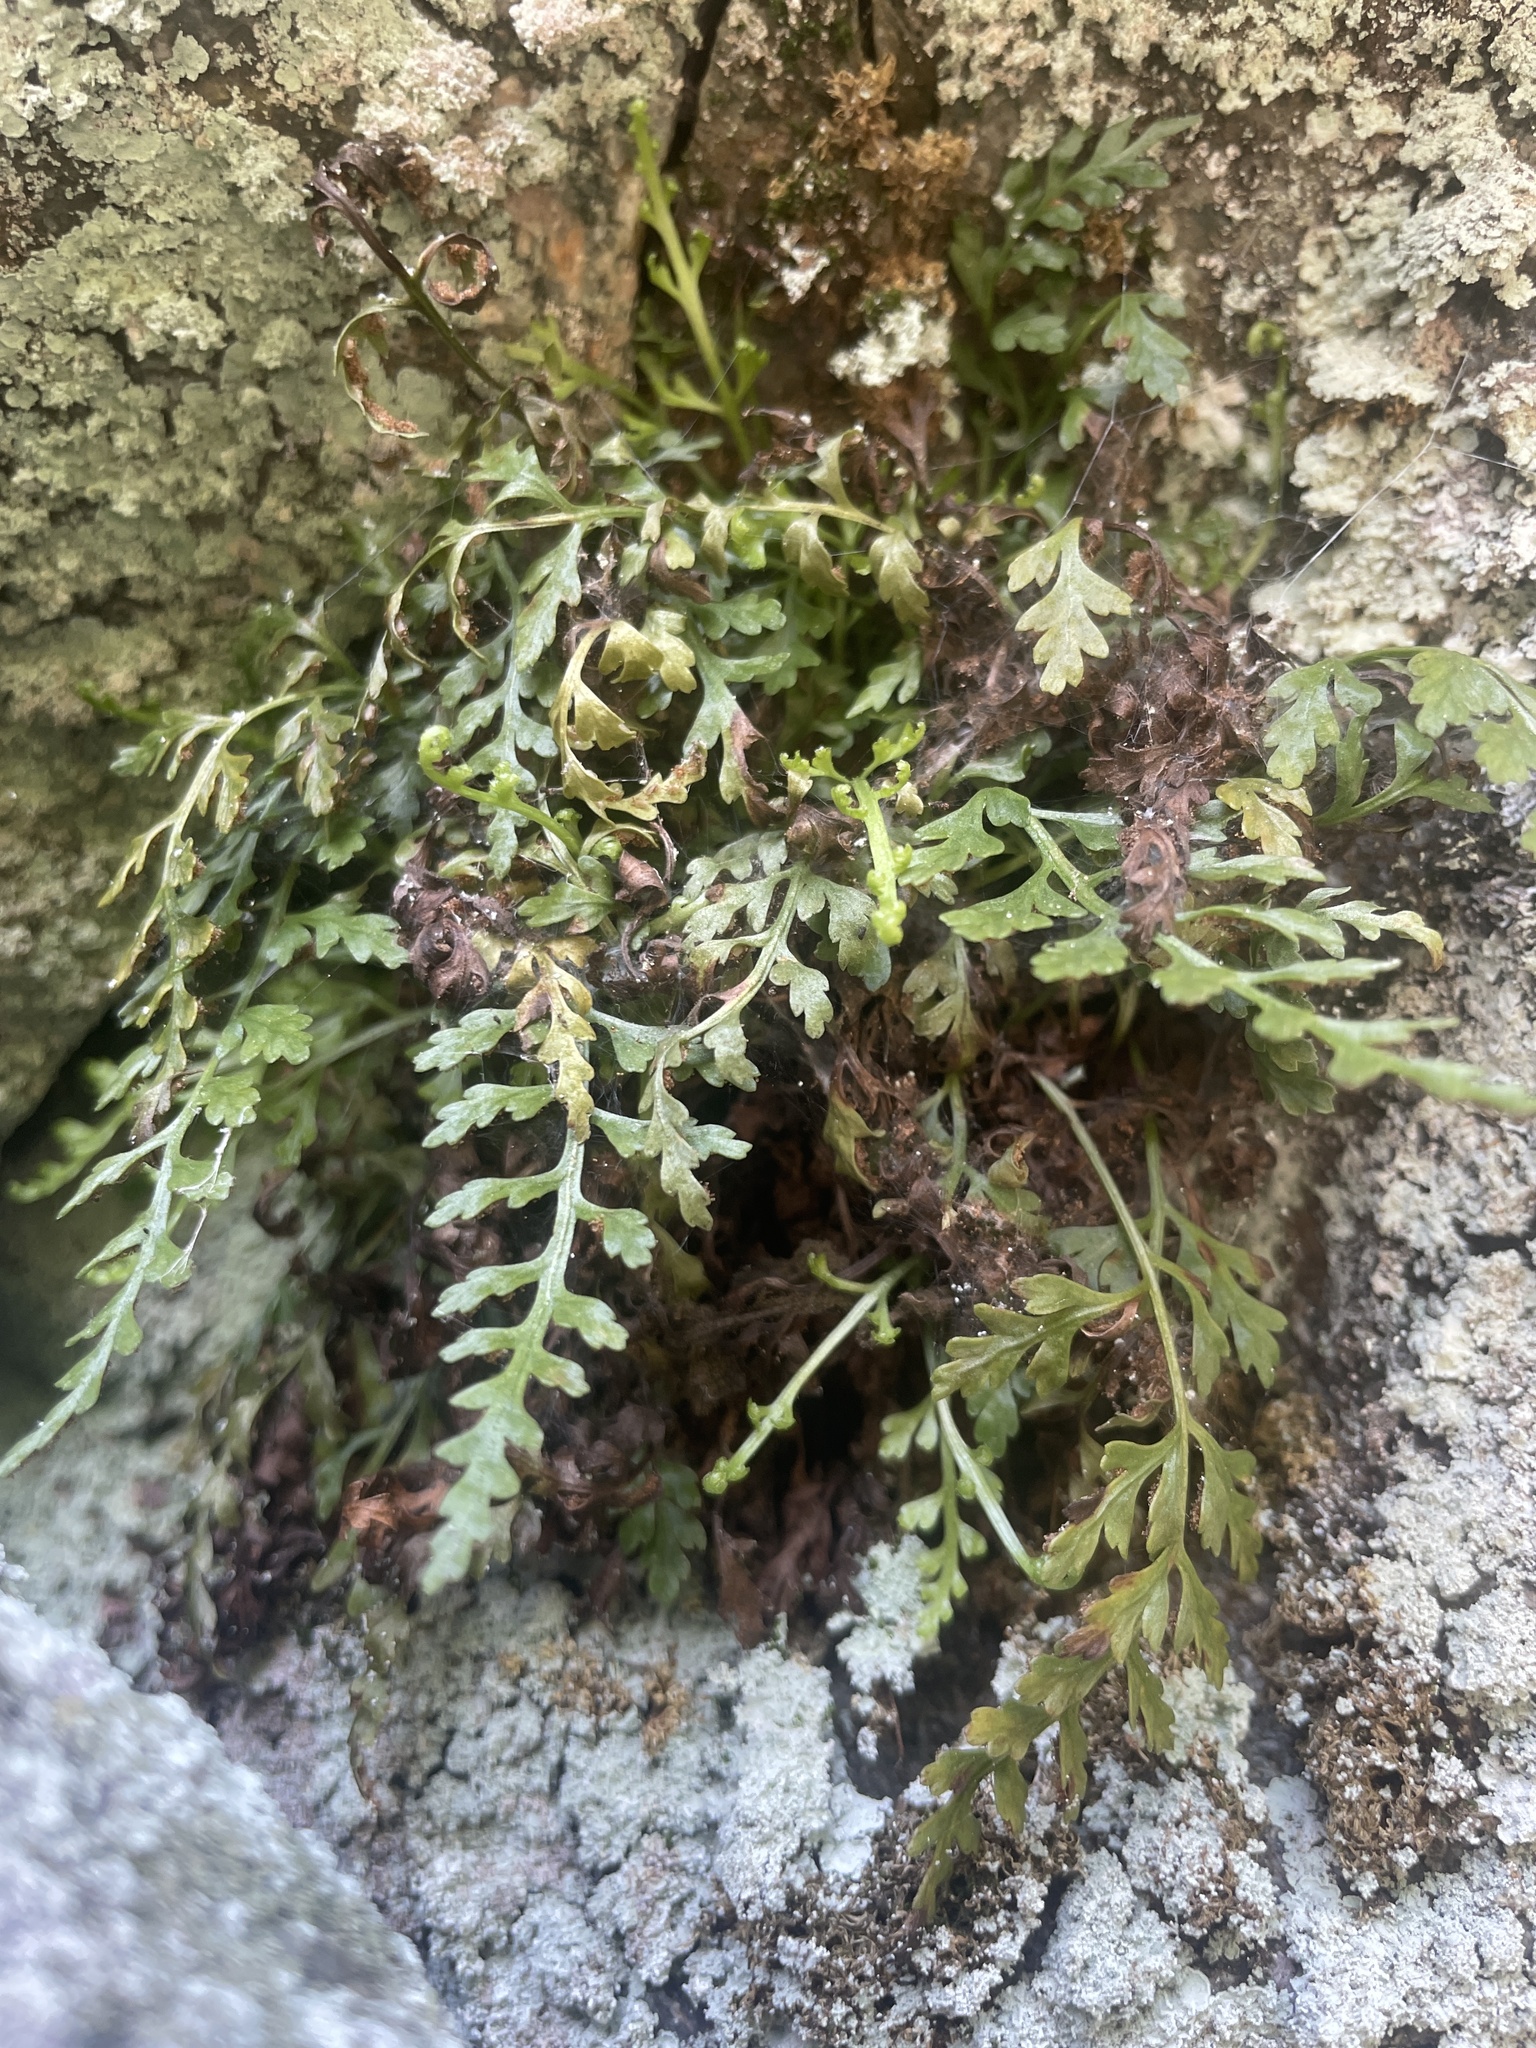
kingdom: Plantae
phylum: Tracheophyta
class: Polypodiopsida
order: Polypodiales
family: Aspleniaceae
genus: Asplenium
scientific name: Asplenium montanum
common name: Mountain spleenwort
